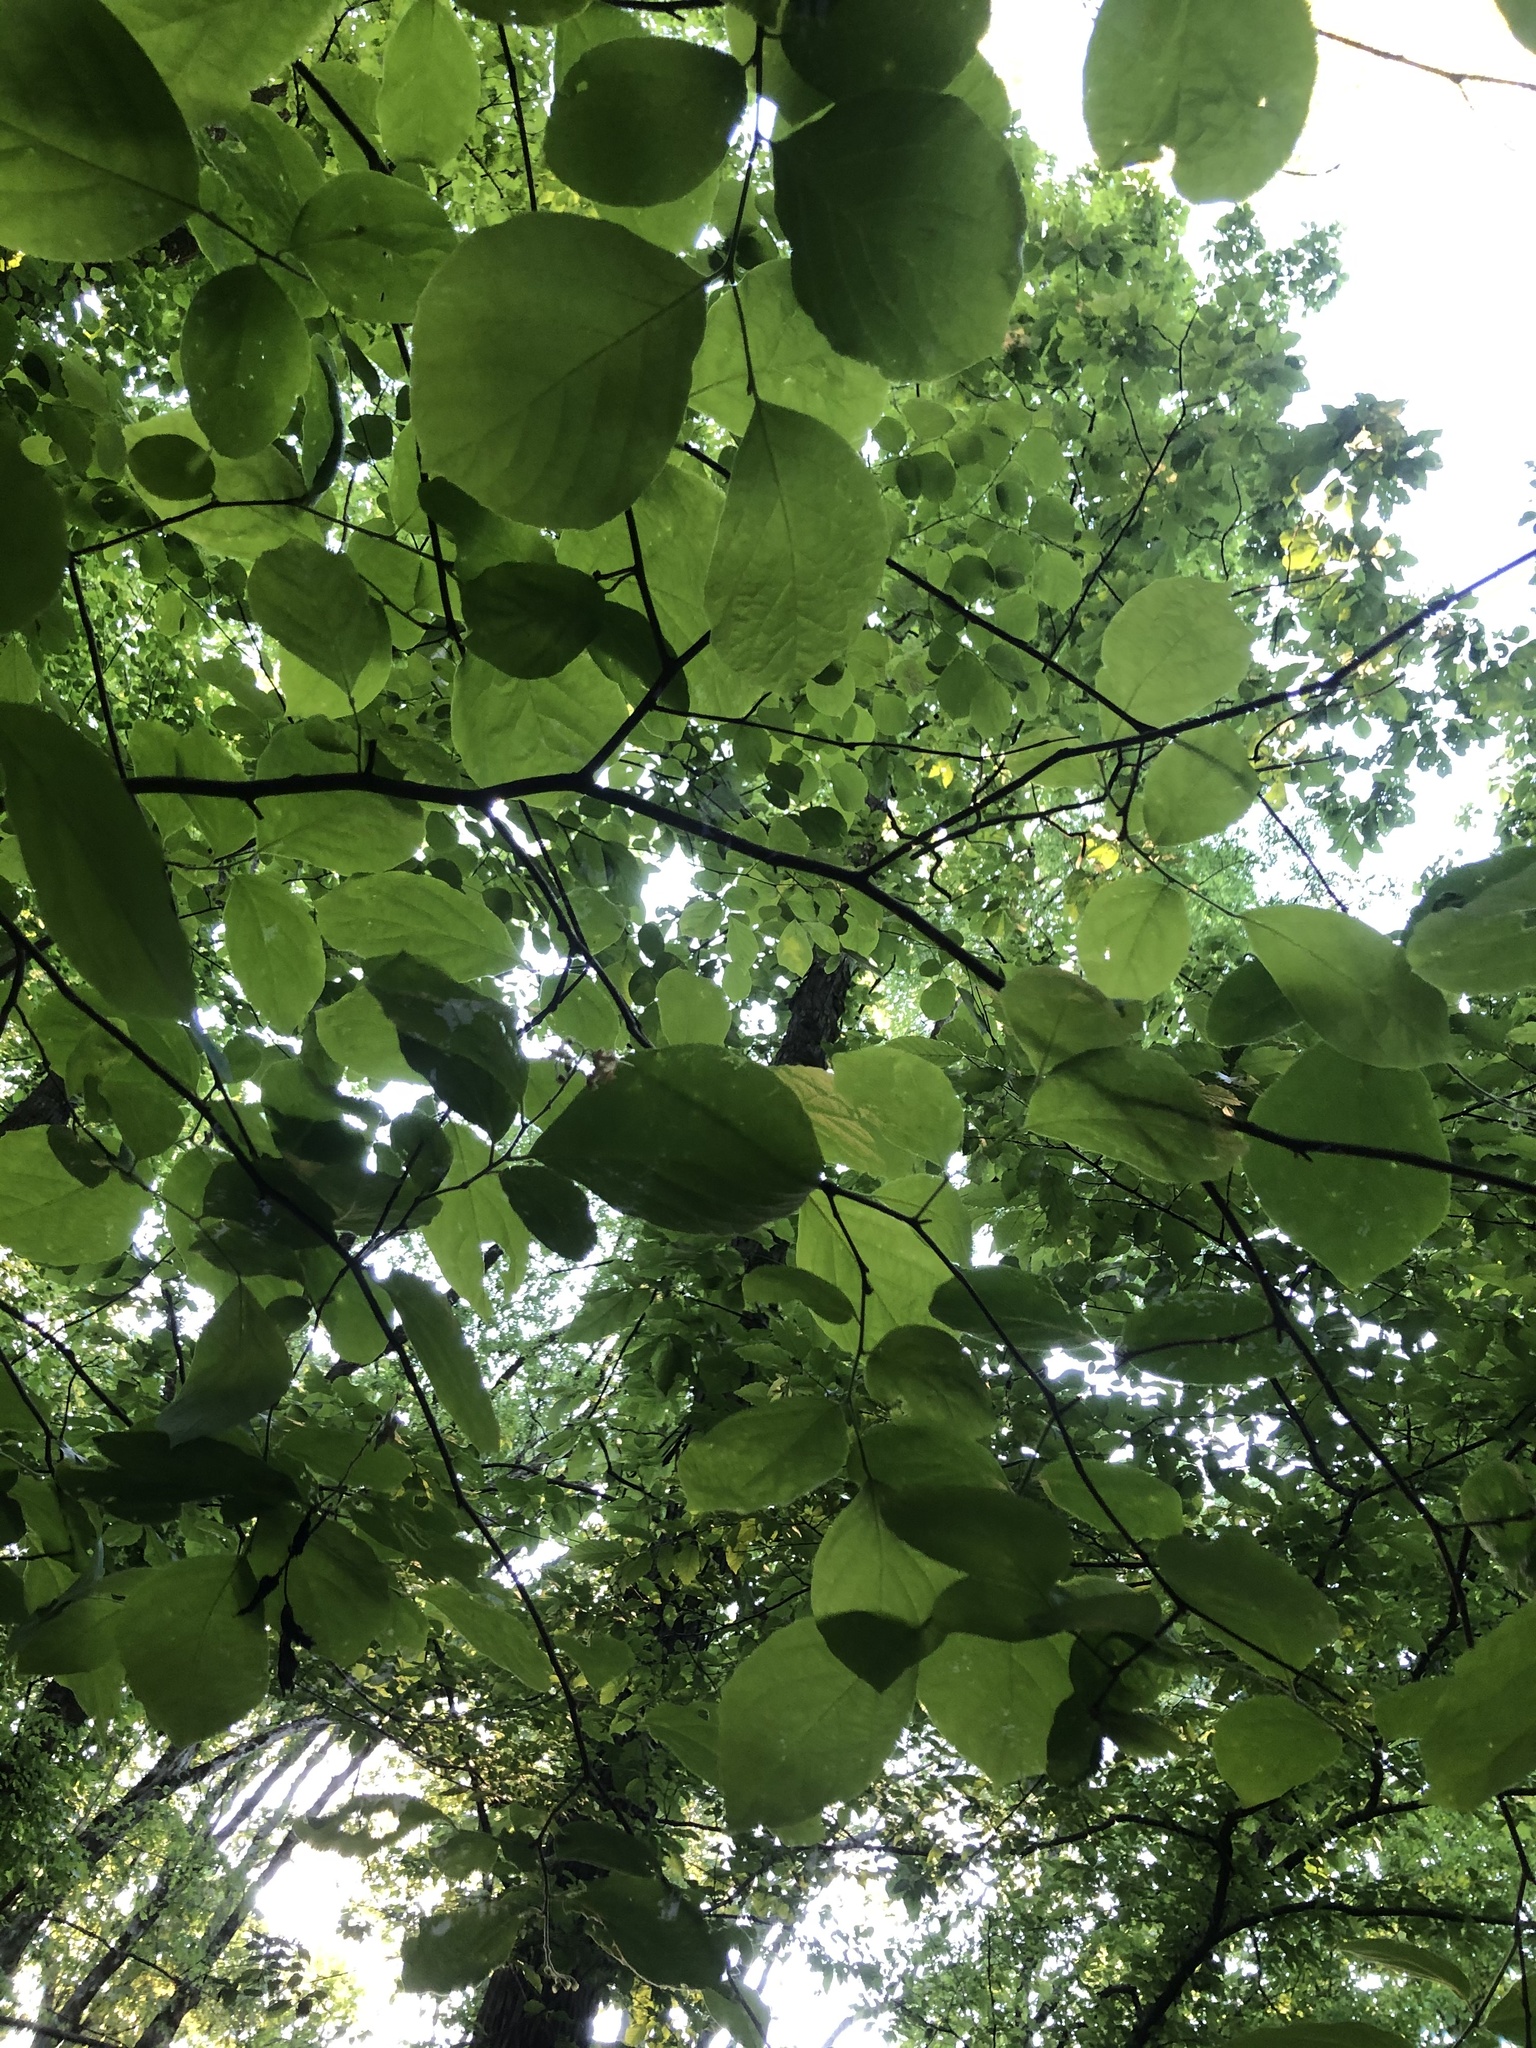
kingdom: Plantae
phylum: Tracheophyta
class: Magnoliopsida
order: Ericales
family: Styracaceae
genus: Styrax
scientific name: Styrax grandifolius
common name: Big-leaf snowbell
